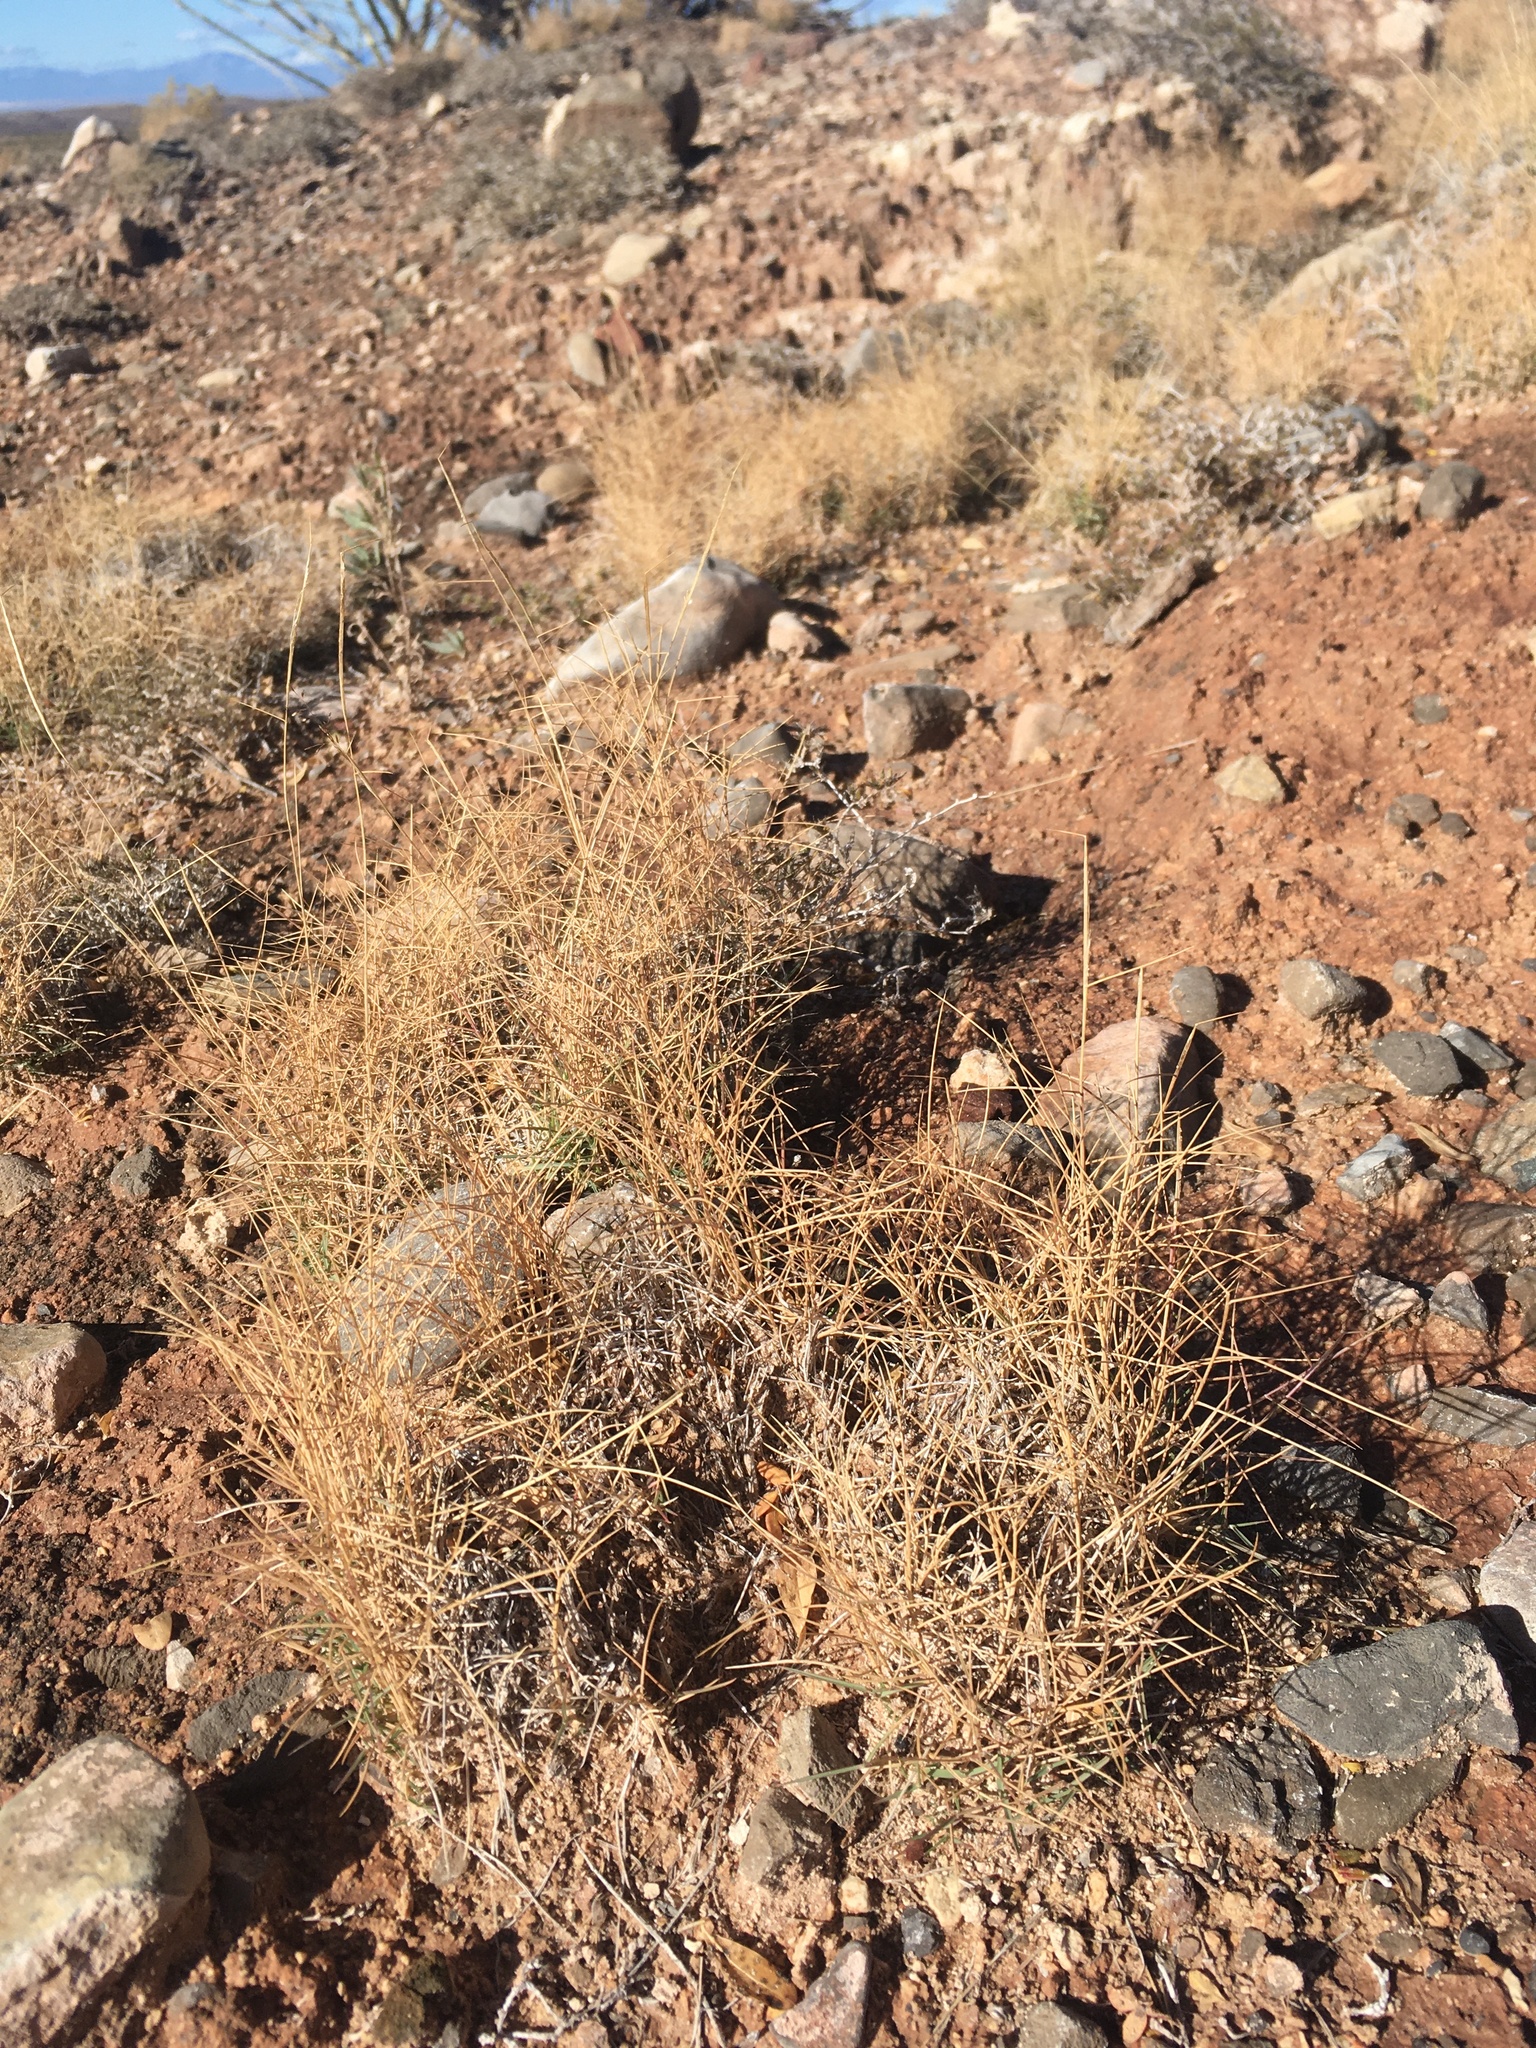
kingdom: Plantae
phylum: Tracheophyta
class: Liliopsida
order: Poales
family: Poaceae
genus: Sporobolus
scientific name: Sporobolus nealleyi
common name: Gyp grass
